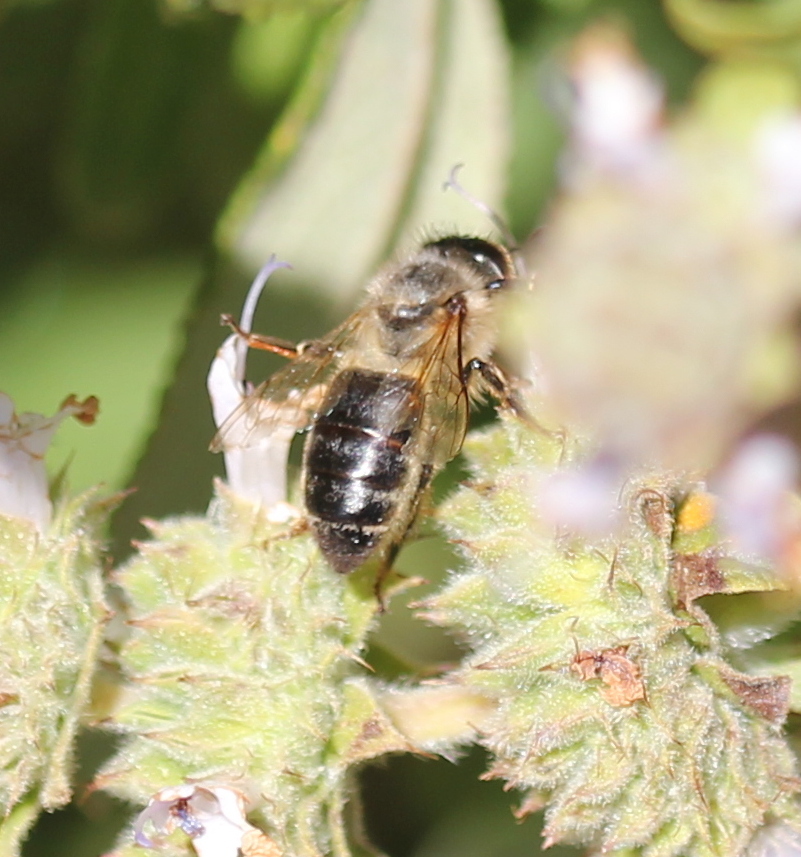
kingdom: Animalia
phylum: Arthropoda
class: Insecta
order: Hymenoptera
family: Apidae
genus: Apis
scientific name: Apis mellifera
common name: Honey bee
